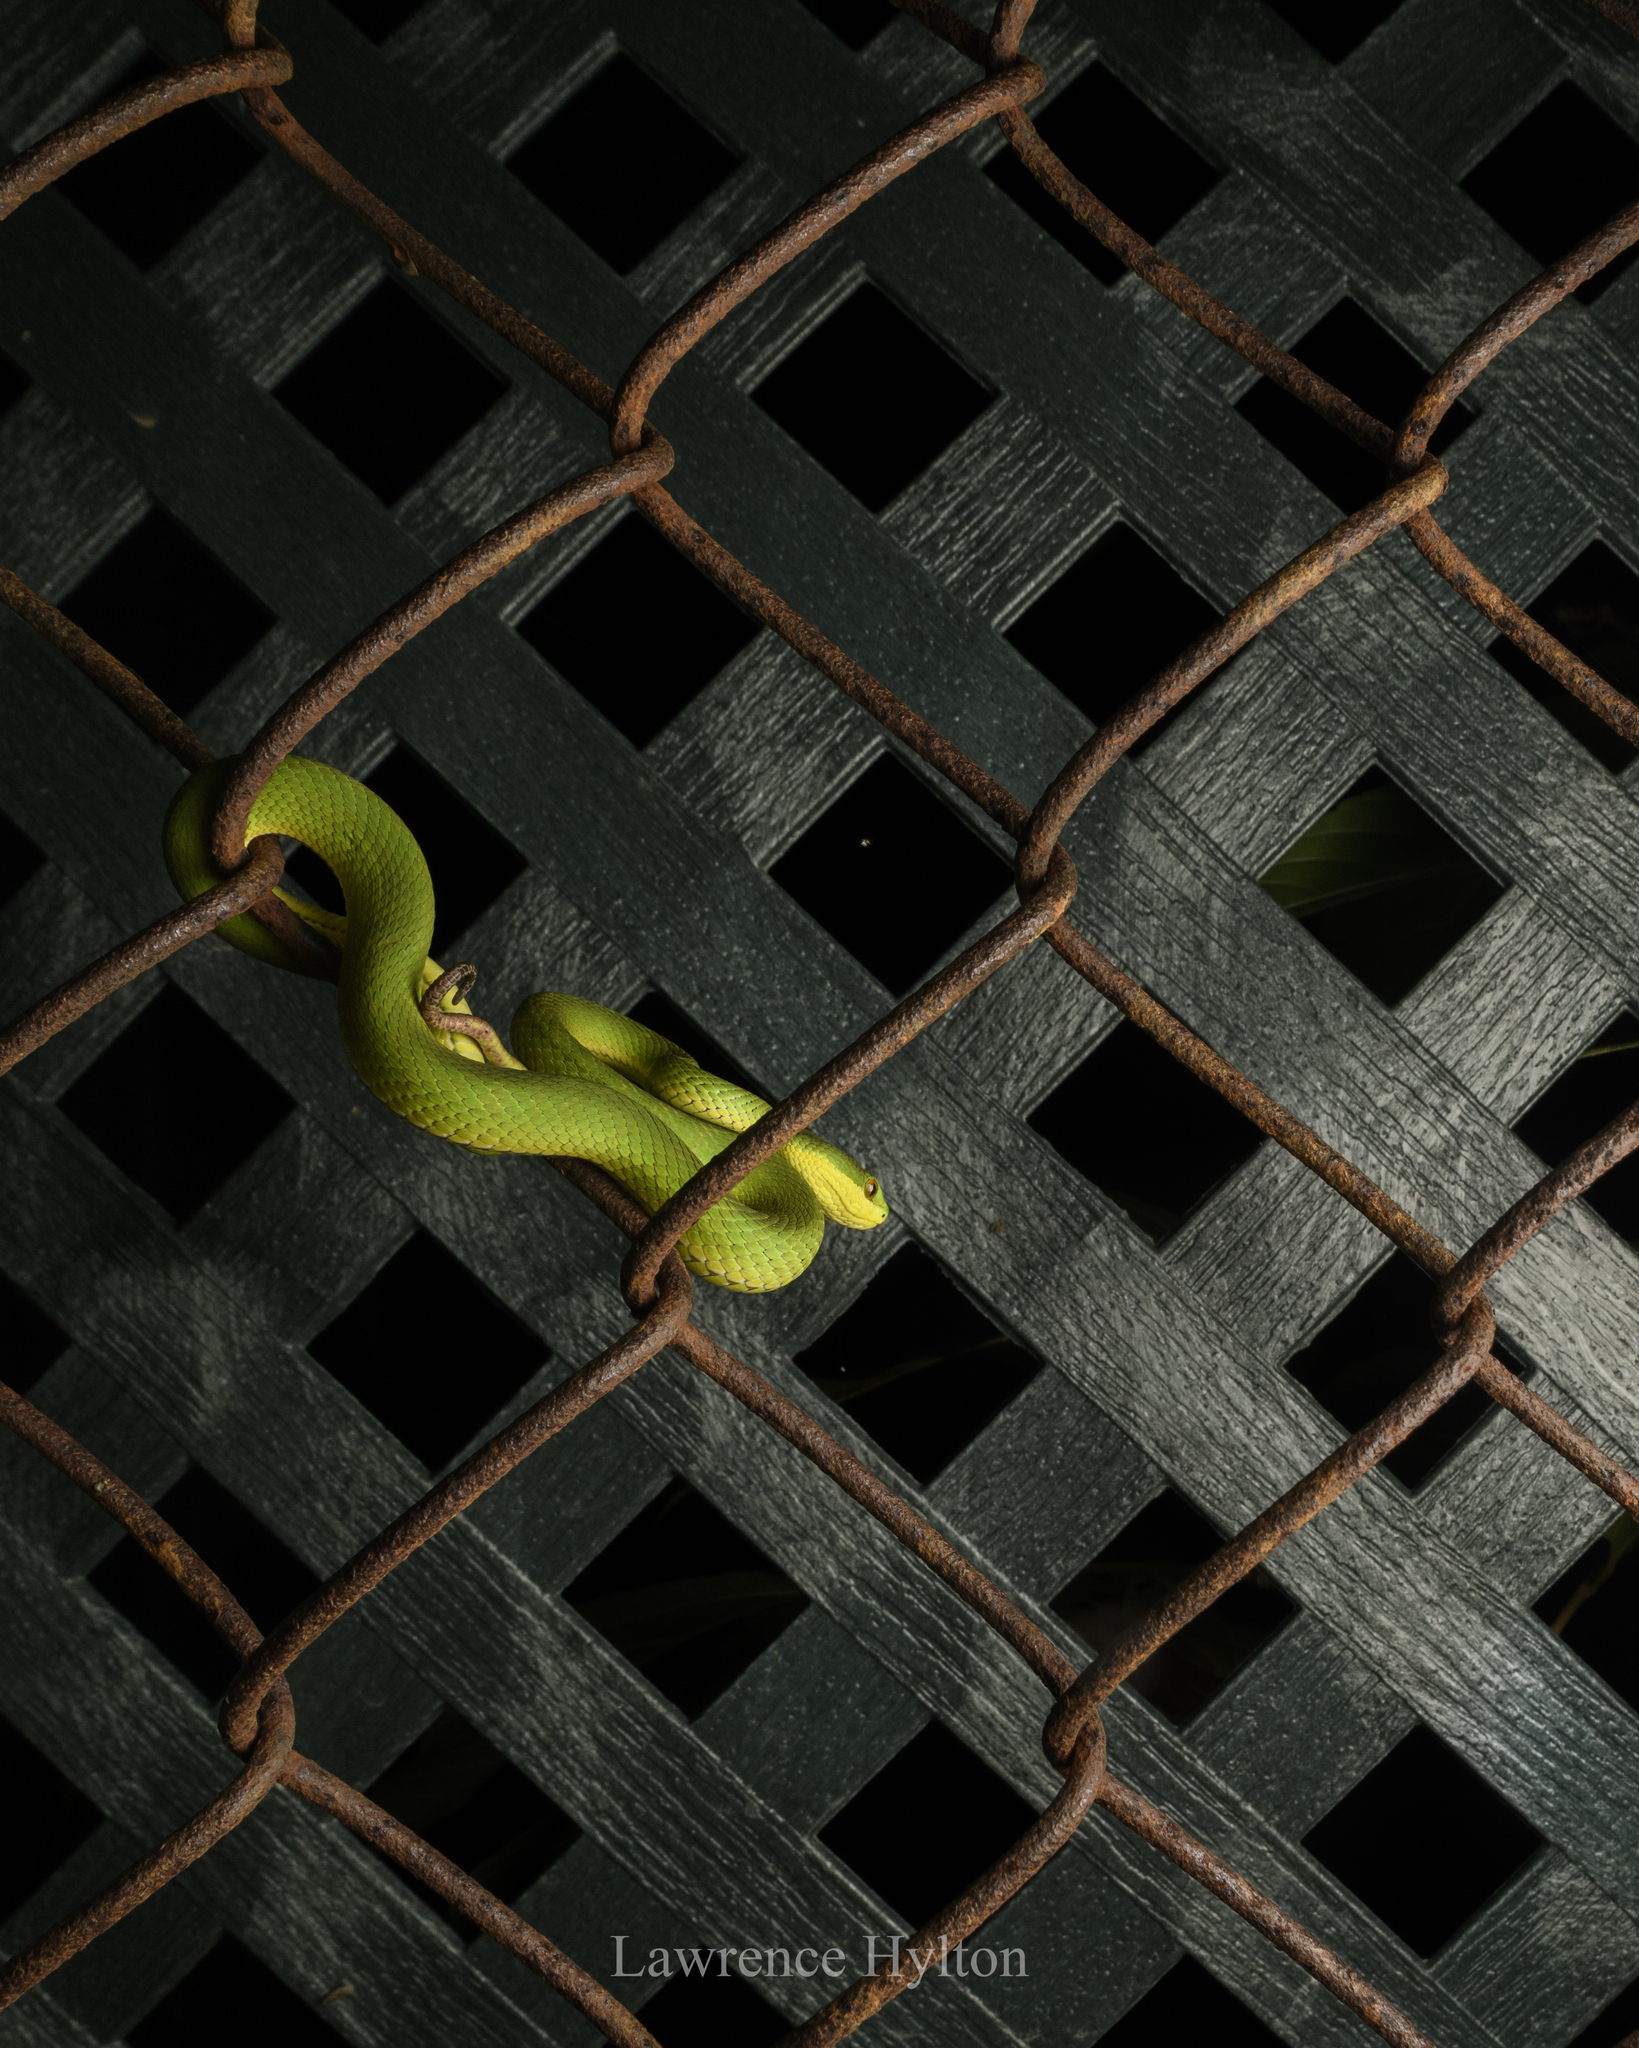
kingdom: Animalia
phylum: Chordata
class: Squamata
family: Viperidae
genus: Trimeresurus
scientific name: Trimeresurus albolabris
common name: White-lipped pitviper
